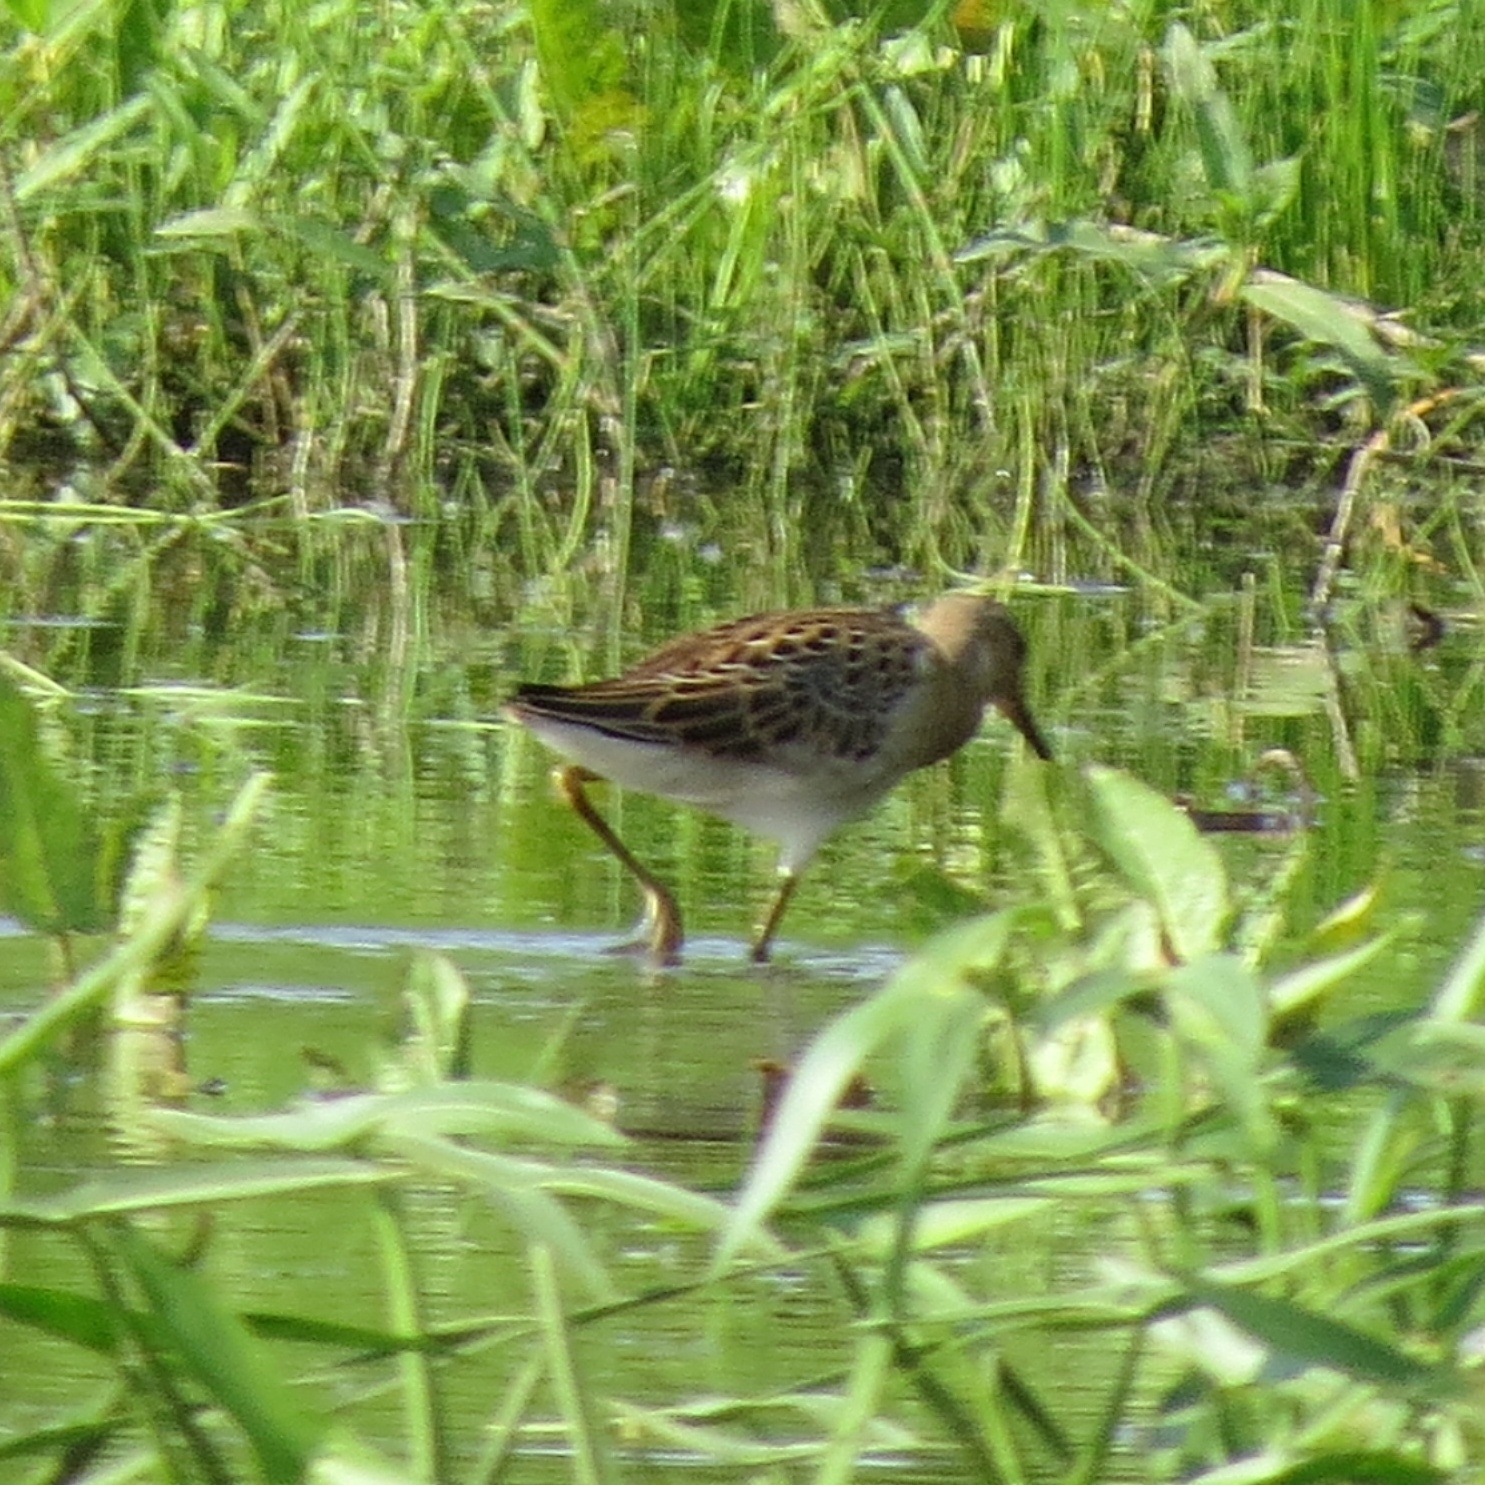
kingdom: Animalia
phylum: Chordata
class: Aves
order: Charadriiformes
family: Scolopacidae
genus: Calidris
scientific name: Calidris pugnax
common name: Ruff
